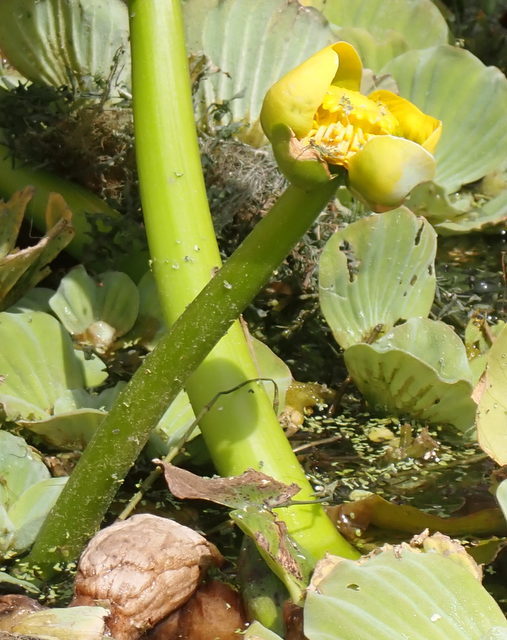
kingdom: Plantae
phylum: Tracheophyta
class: Magnoliopsida
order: Nymphaeales
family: Nymphaeaceae
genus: Nuphar
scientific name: Nuphar advena
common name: Spatter-dock
